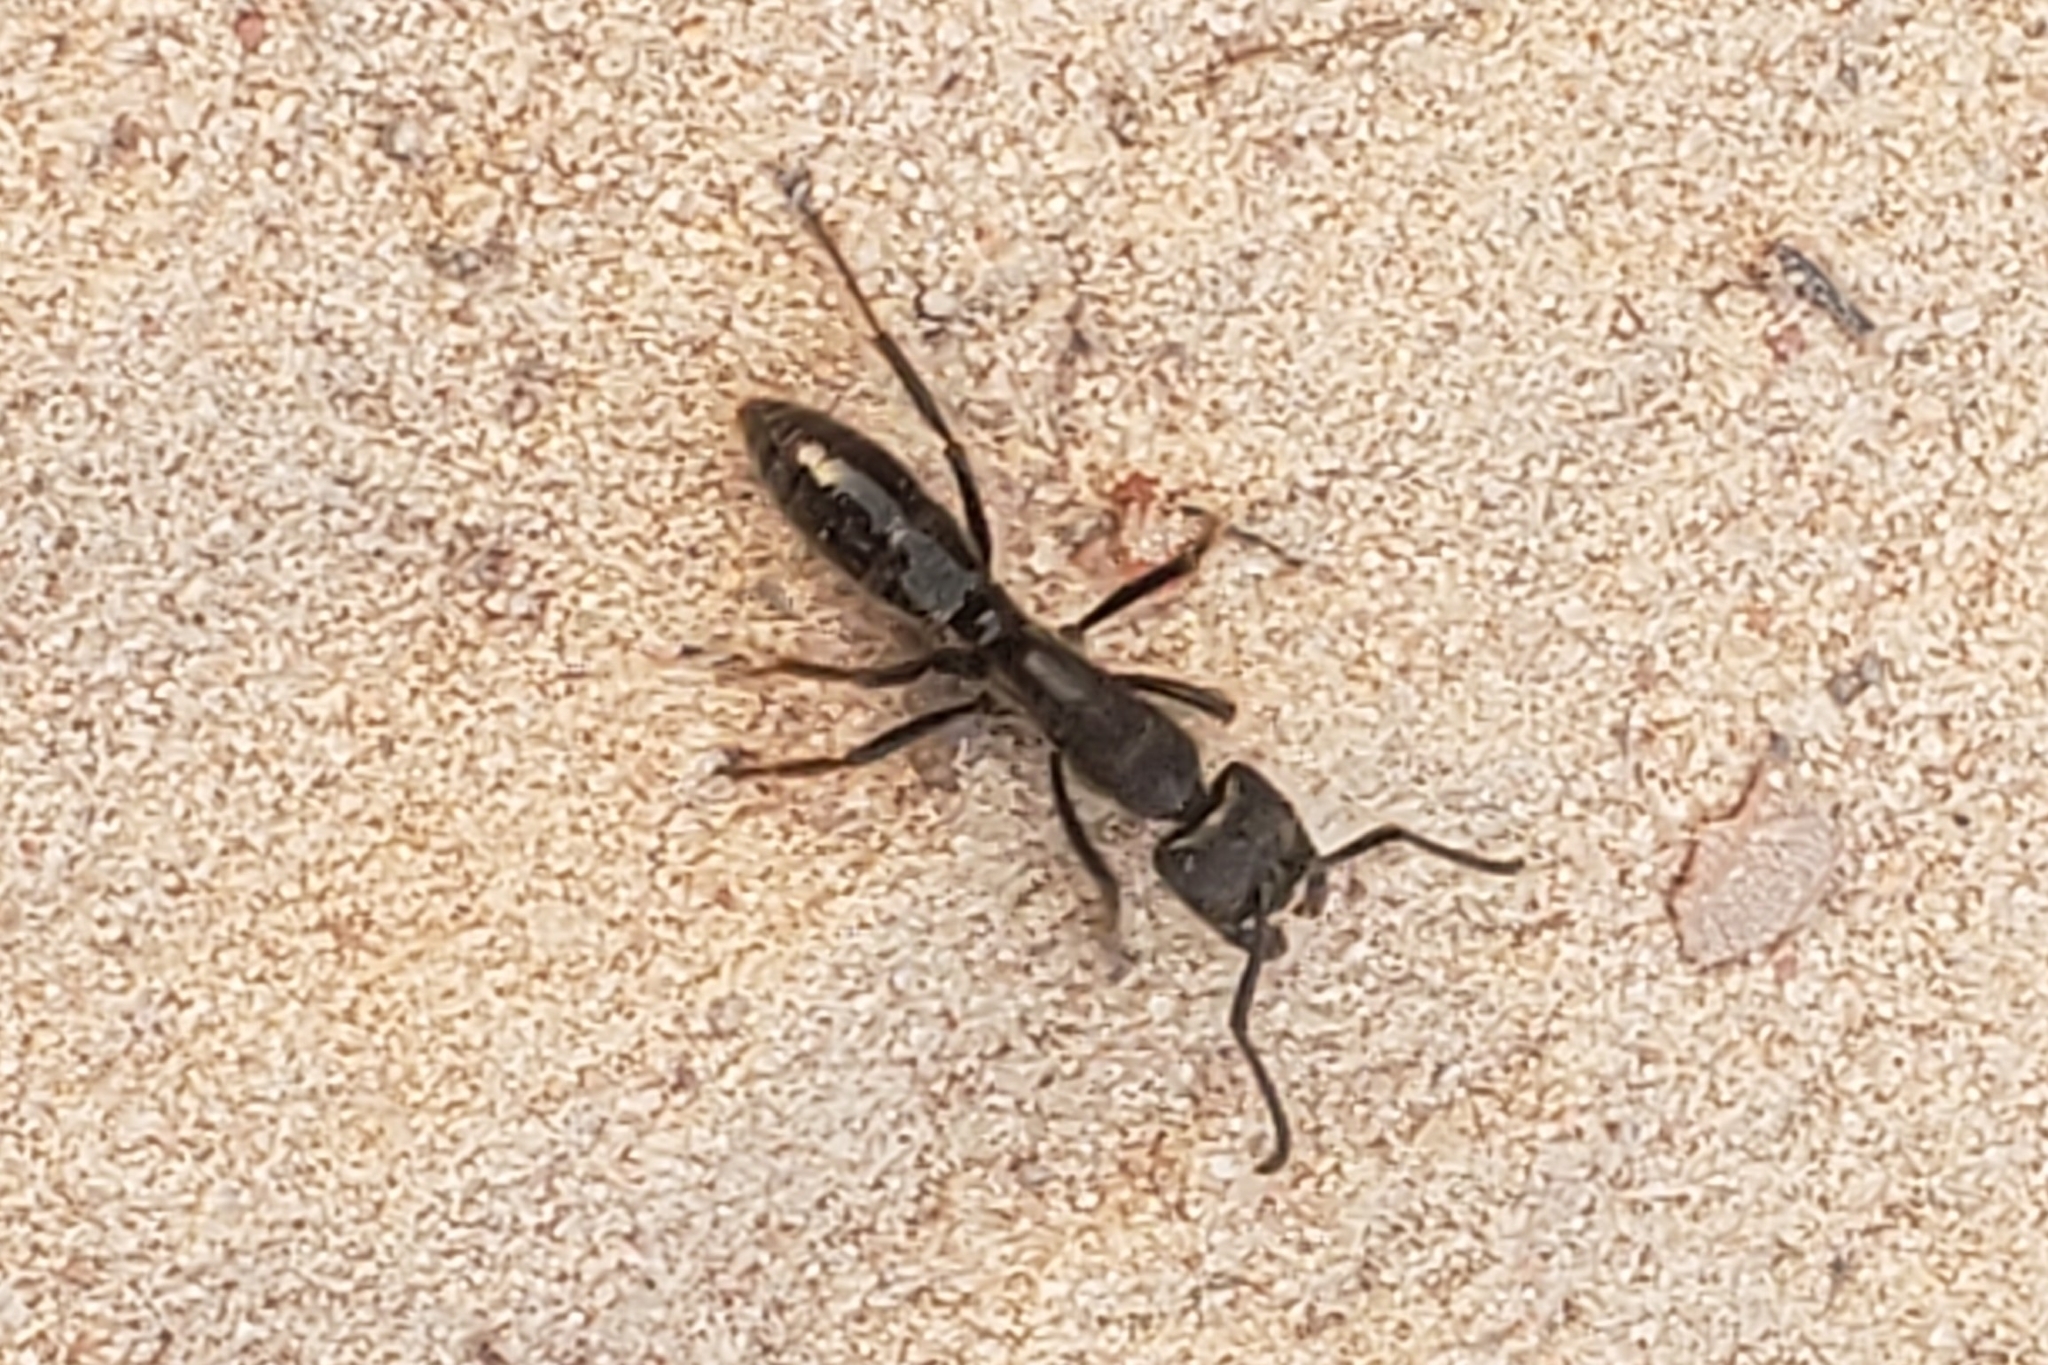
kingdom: Animalia
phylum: Arthropoda
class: Insecta
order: Hymenoptera
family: Formicidae
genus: Paltothyreus
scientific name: Paltothyreus tarsatus
